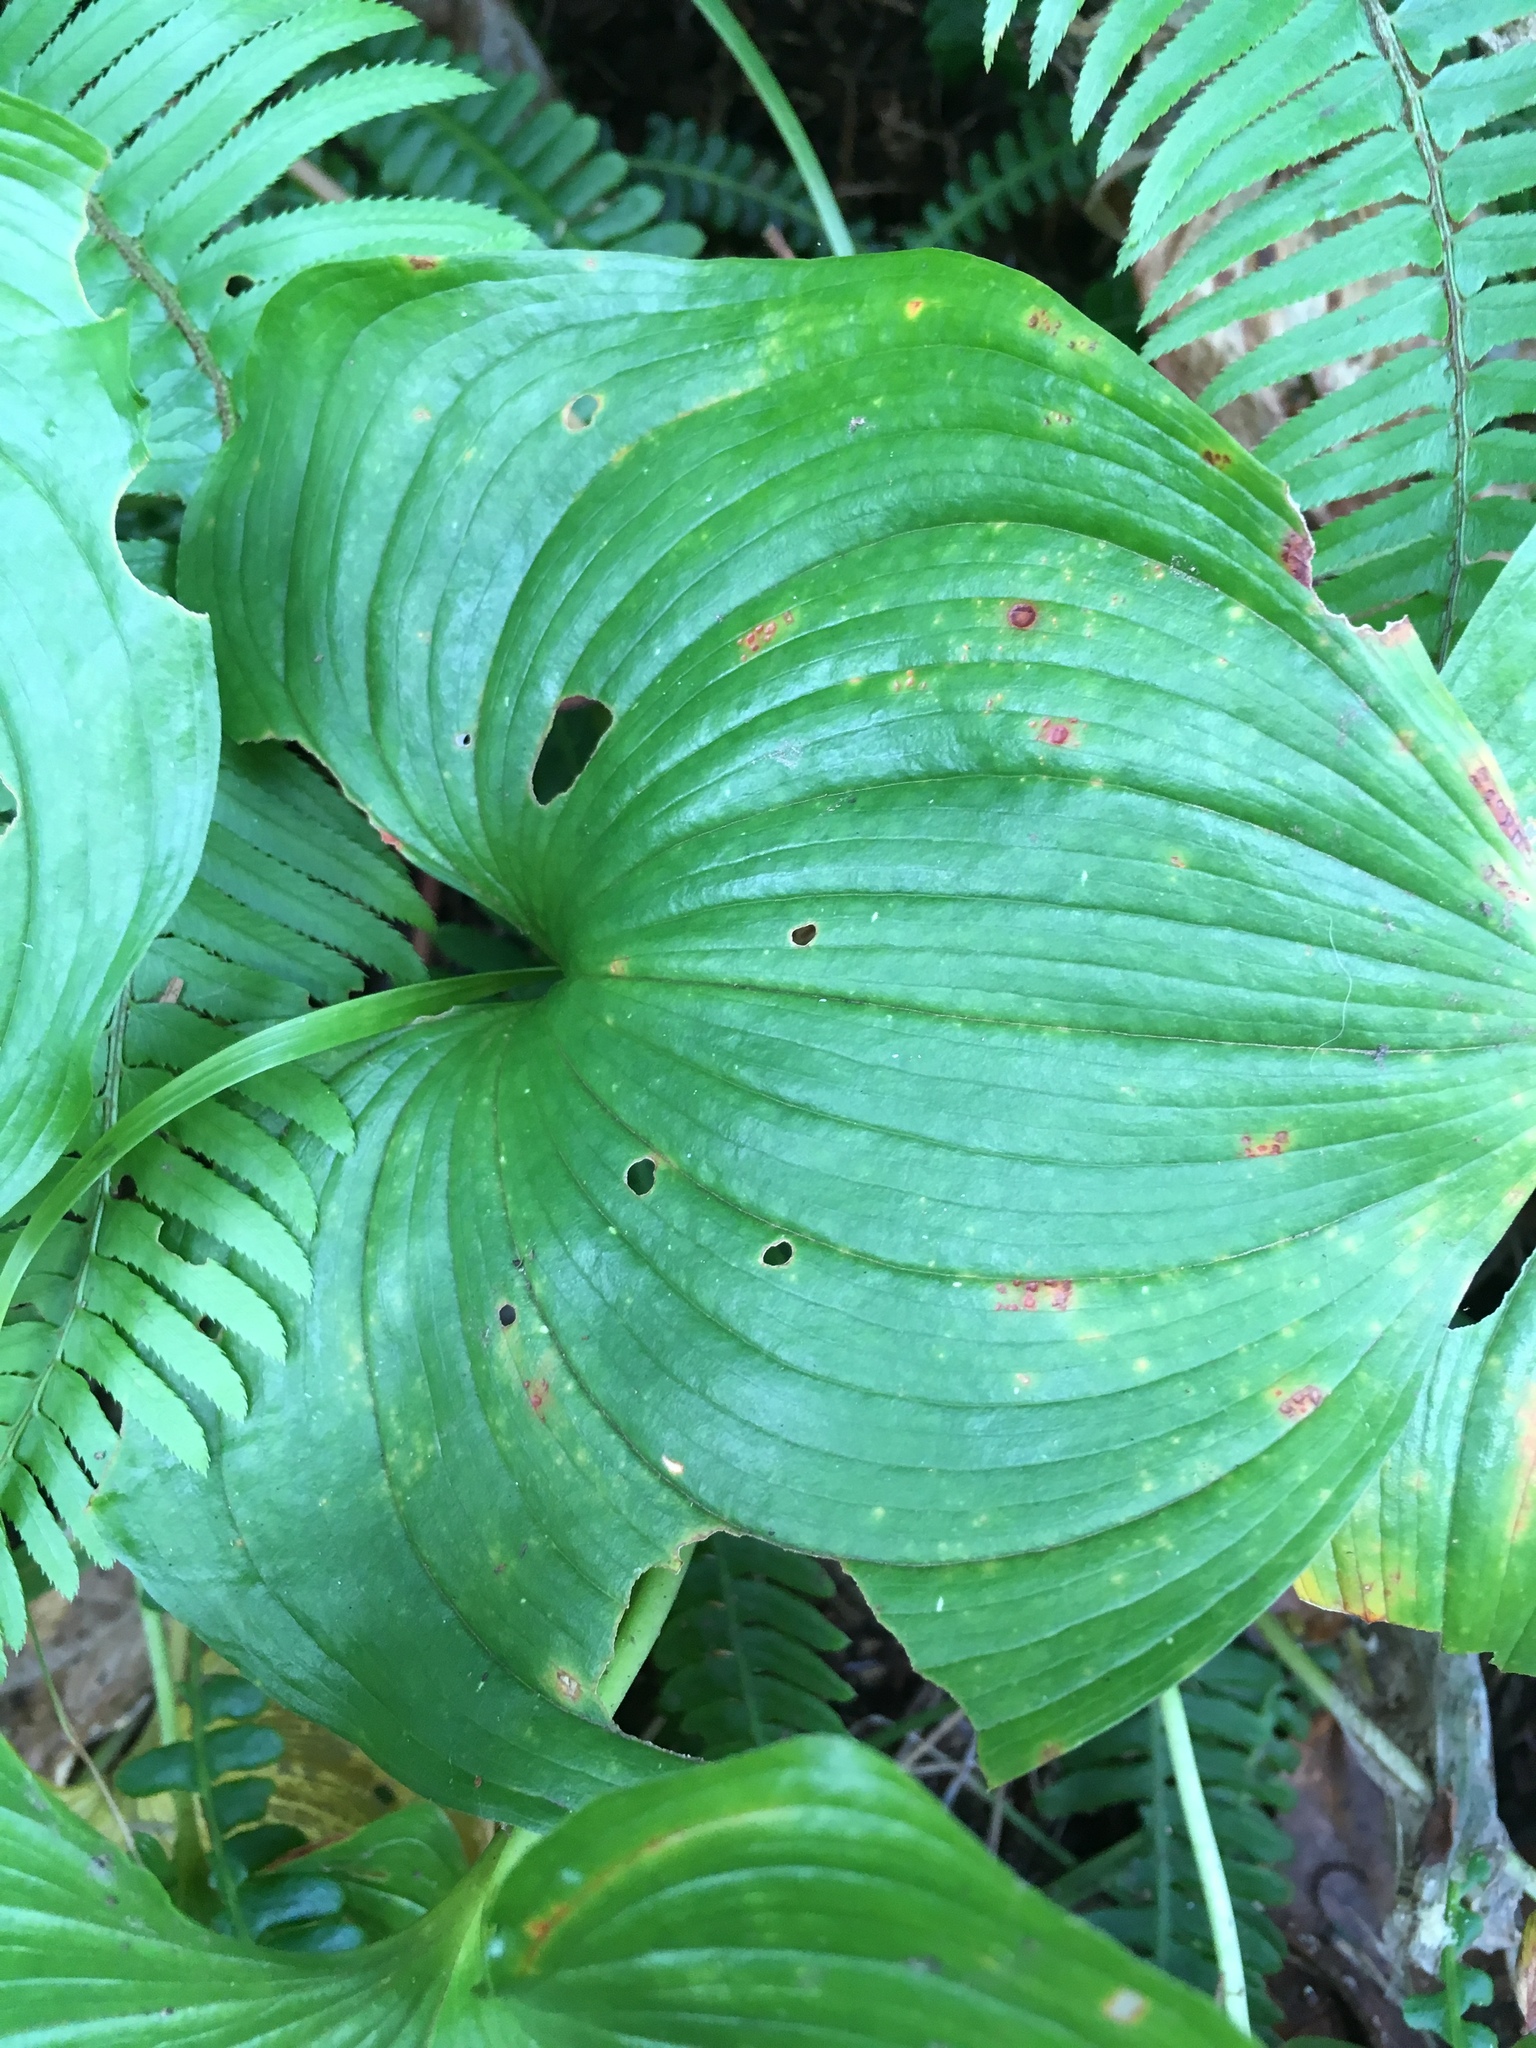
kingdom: Plantae
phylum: Tracheophyta
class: Liliopsida
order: Asparagales
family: Asparagaceae
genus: Maianthemum
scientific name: Maianthemum dilatatum
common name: False lily-of-the-valley
